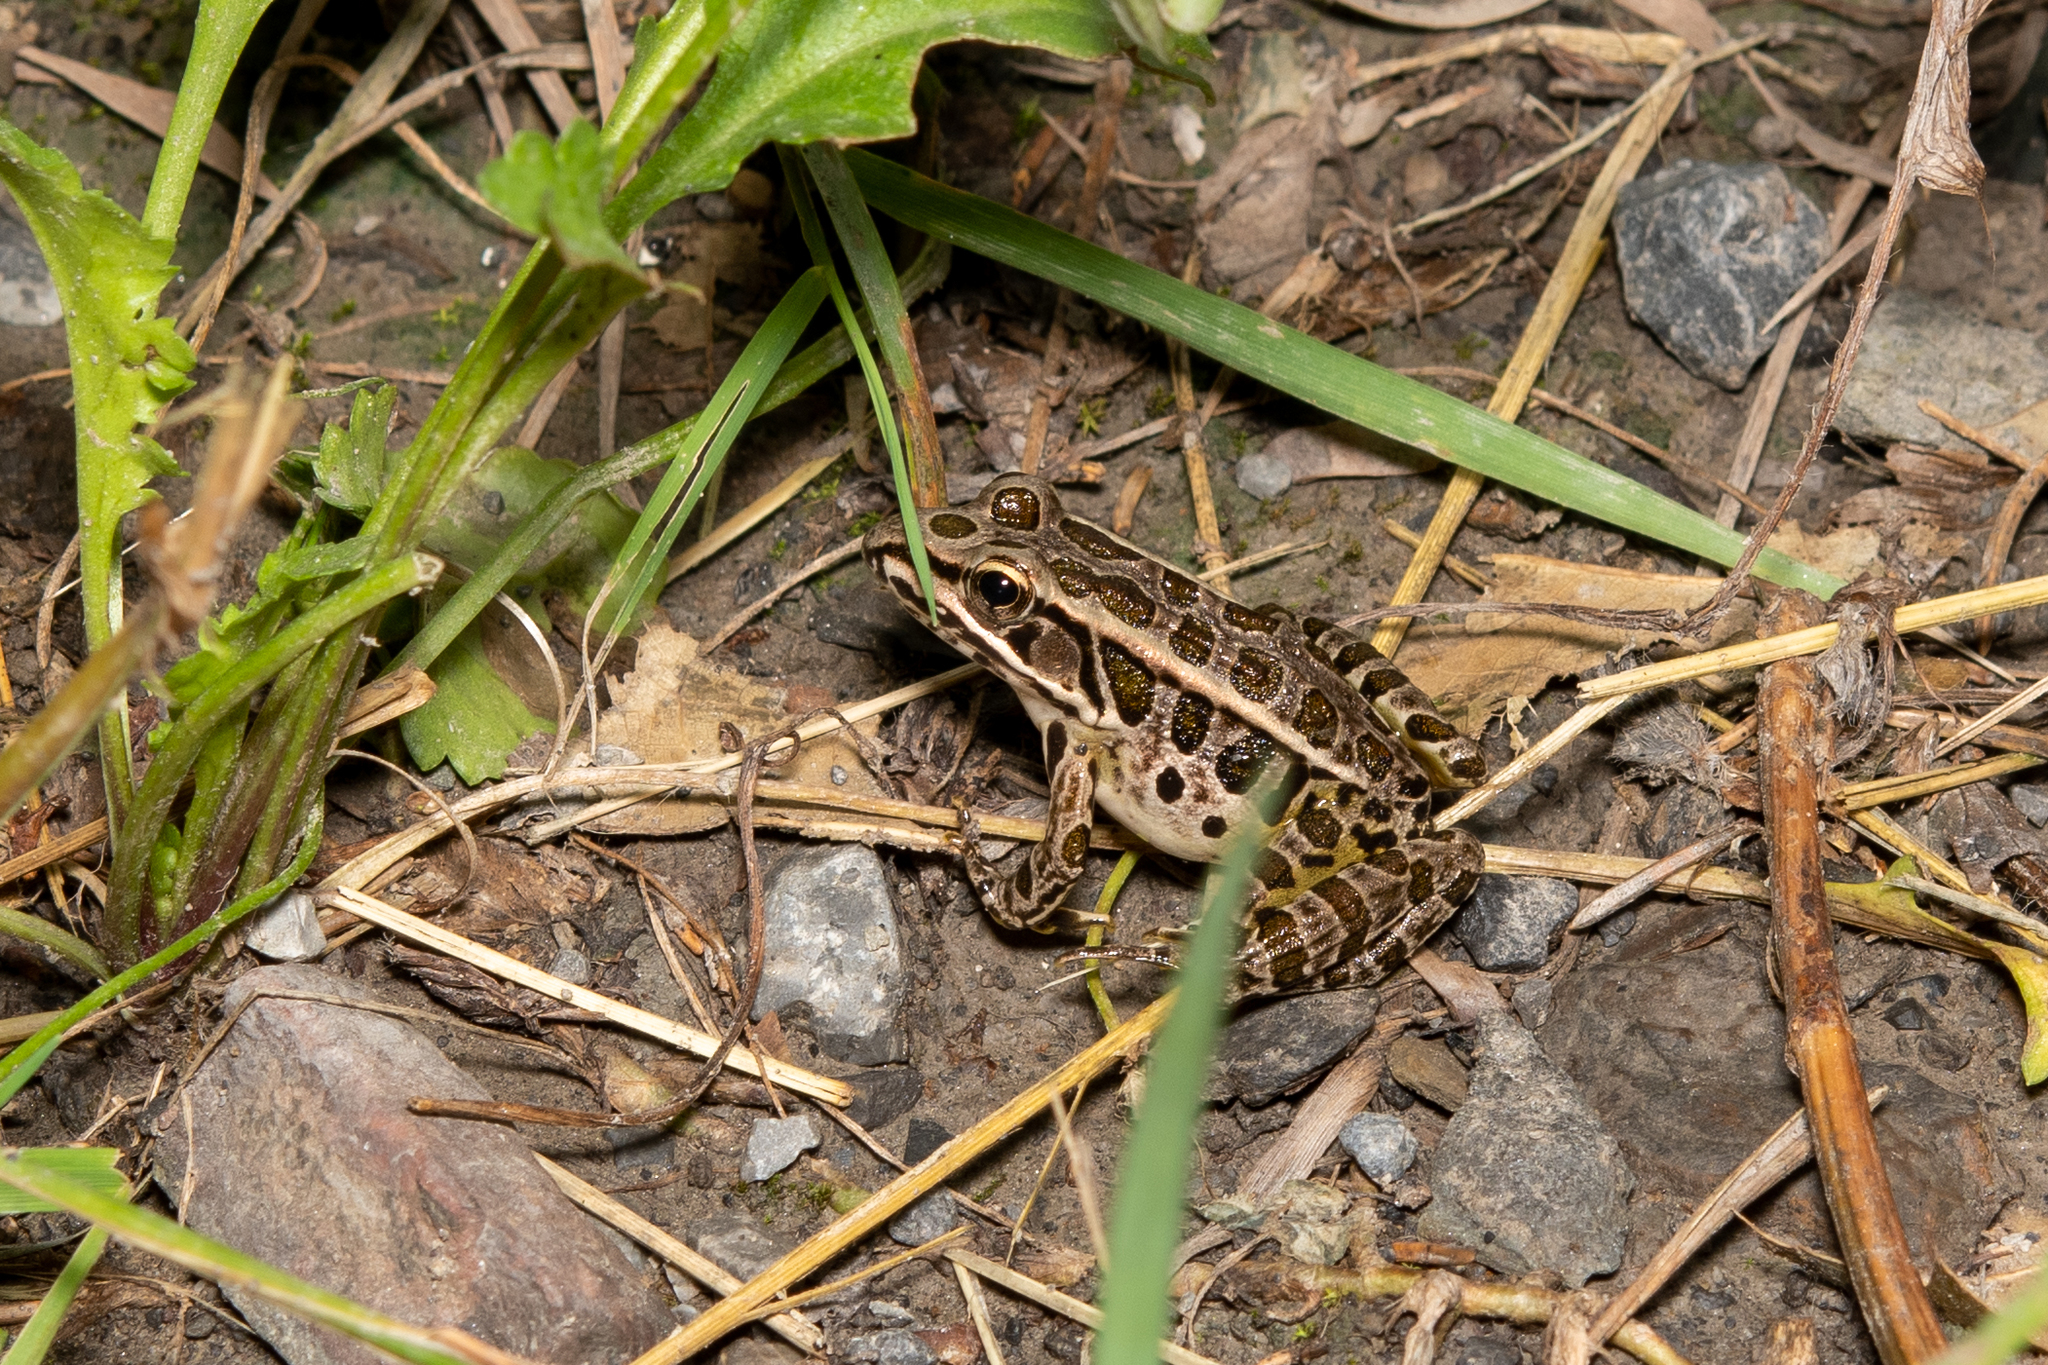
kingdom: Animalia
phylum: Chordata
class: Amphibia
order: Anura
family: Ranidae
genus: Lithobates
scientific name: Lithobates palustris
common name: Pickerel frog
